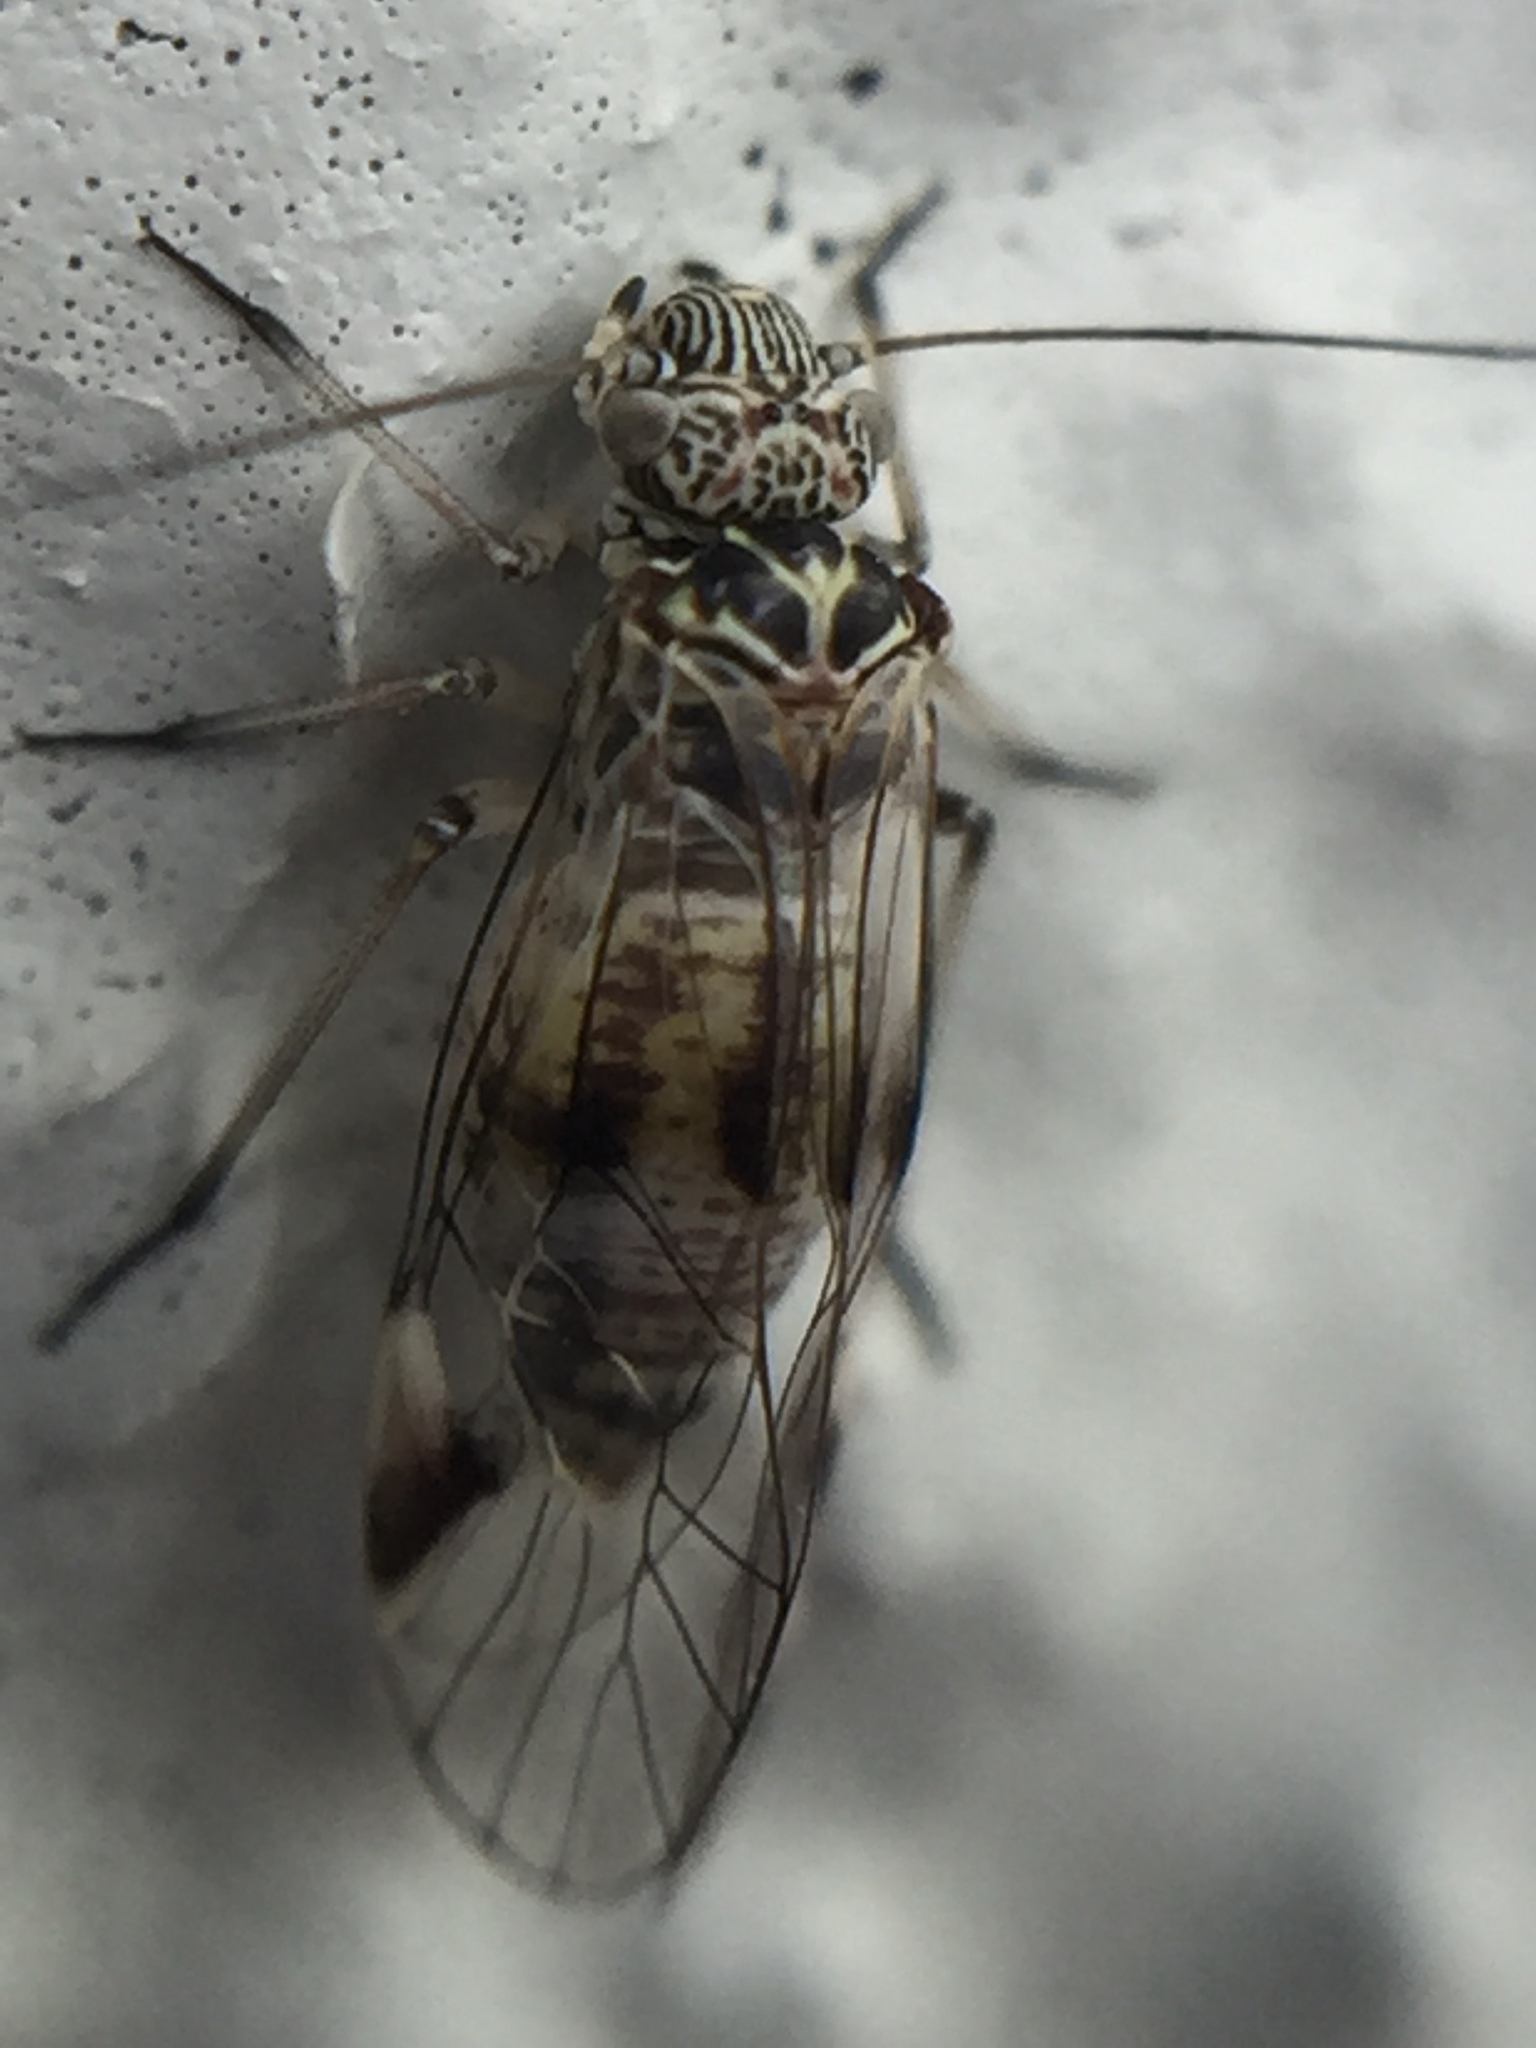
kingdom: Animalia
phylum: Arthropoda
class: Insecta
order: Psocodea
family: Psocidae
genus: Clematostigma
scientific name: Clematostigma maculiceps
